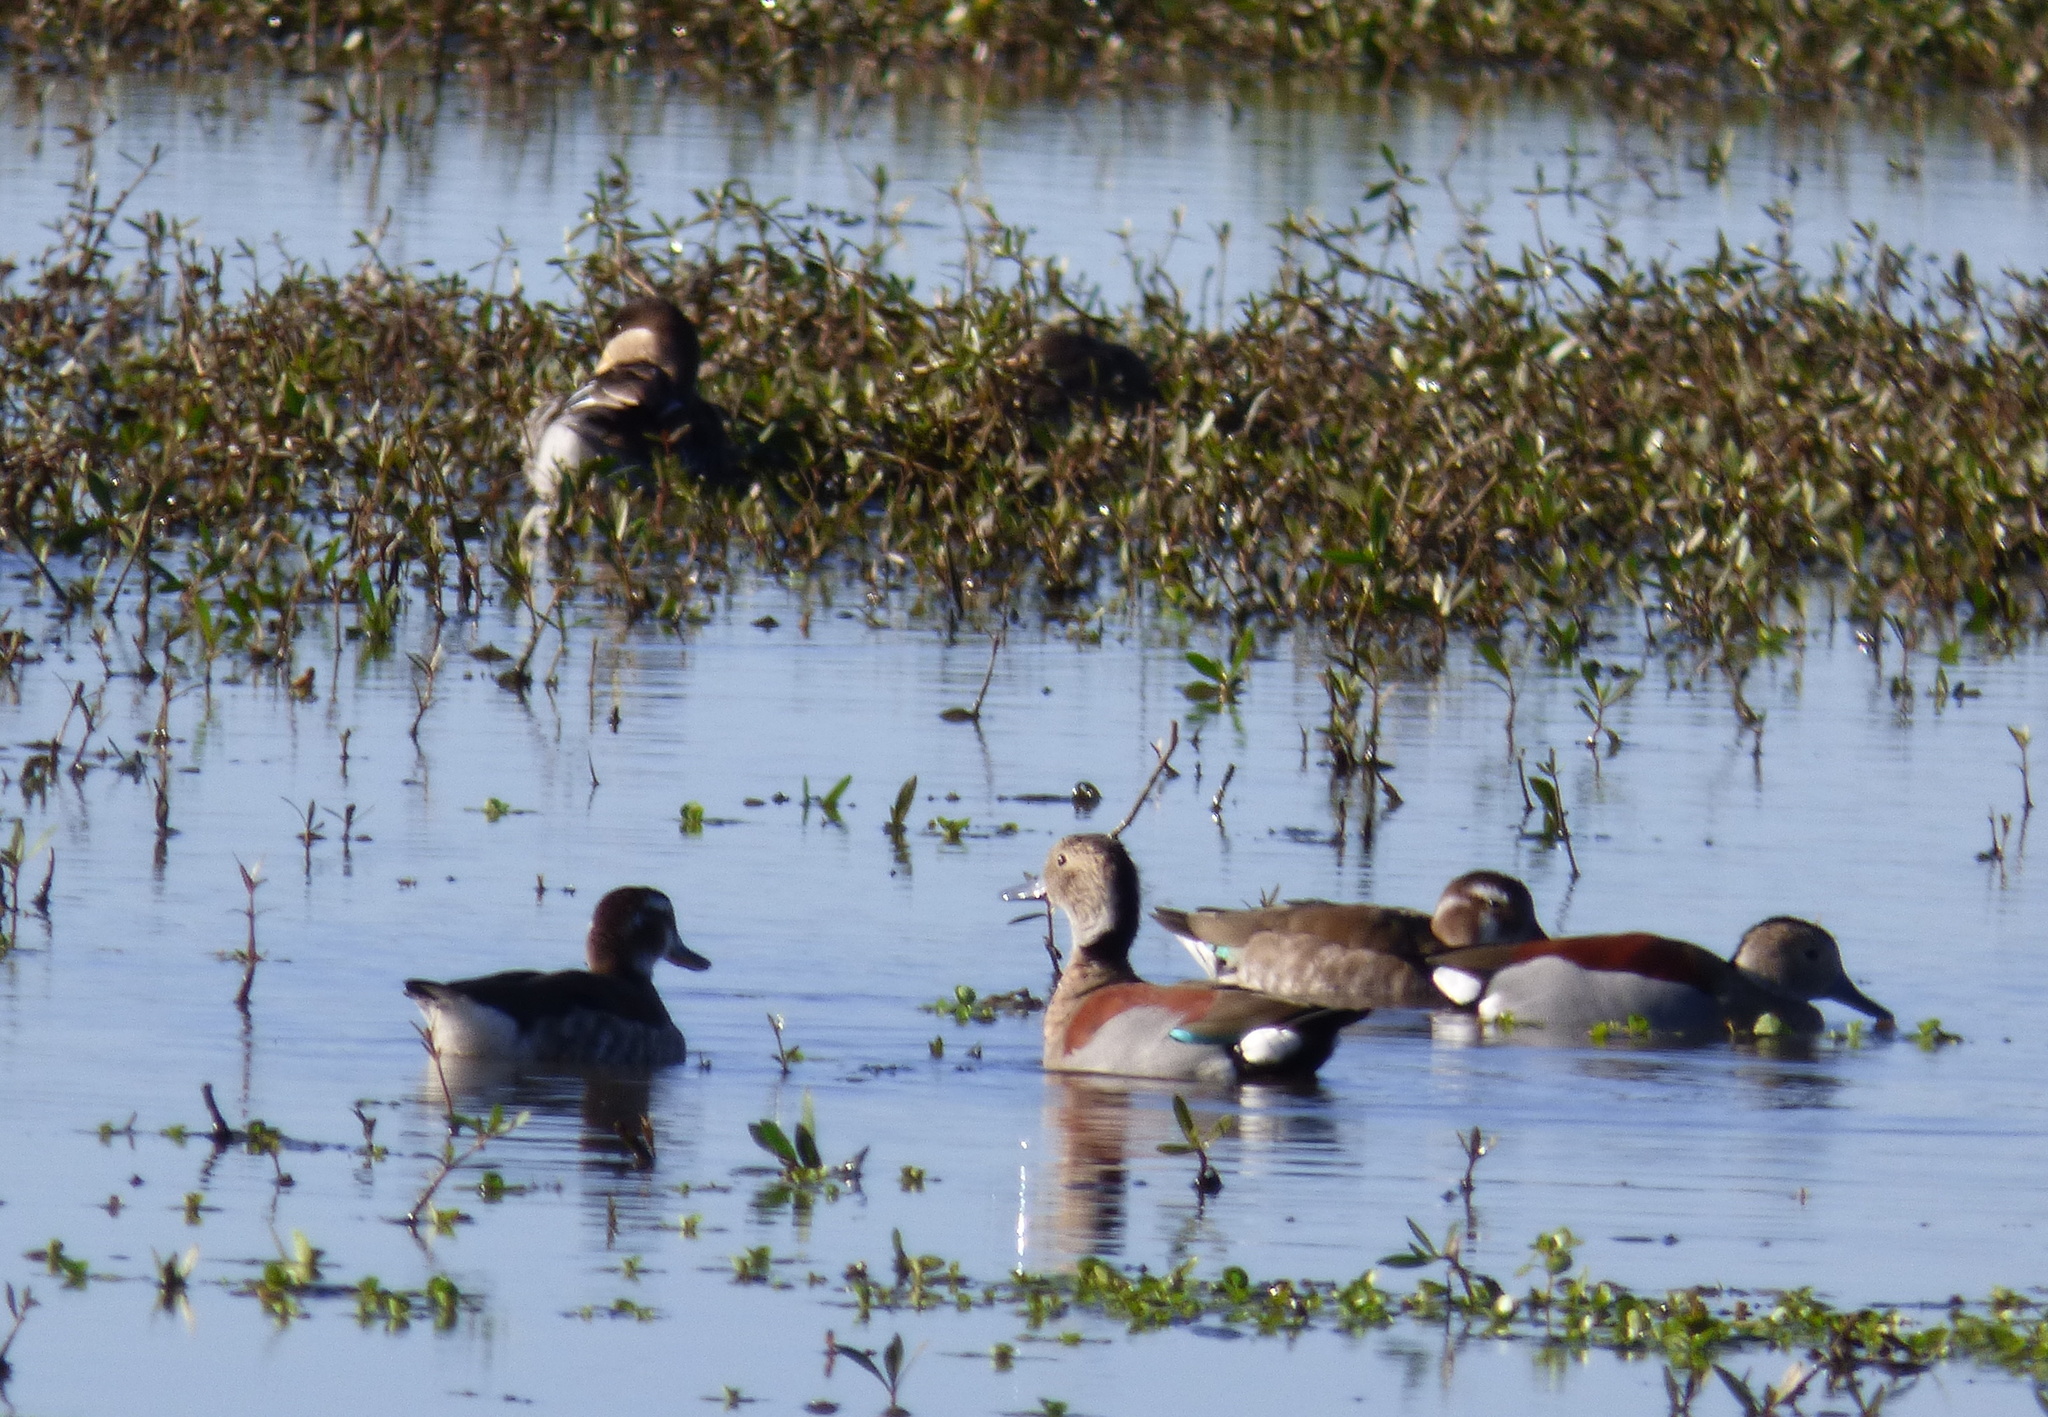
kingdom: Animalia
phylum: Chordata
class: Aves
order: Anseriformes
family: Anatidae
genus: Callonetta
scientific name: Callonetta leucophrys
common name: Ringed teal
